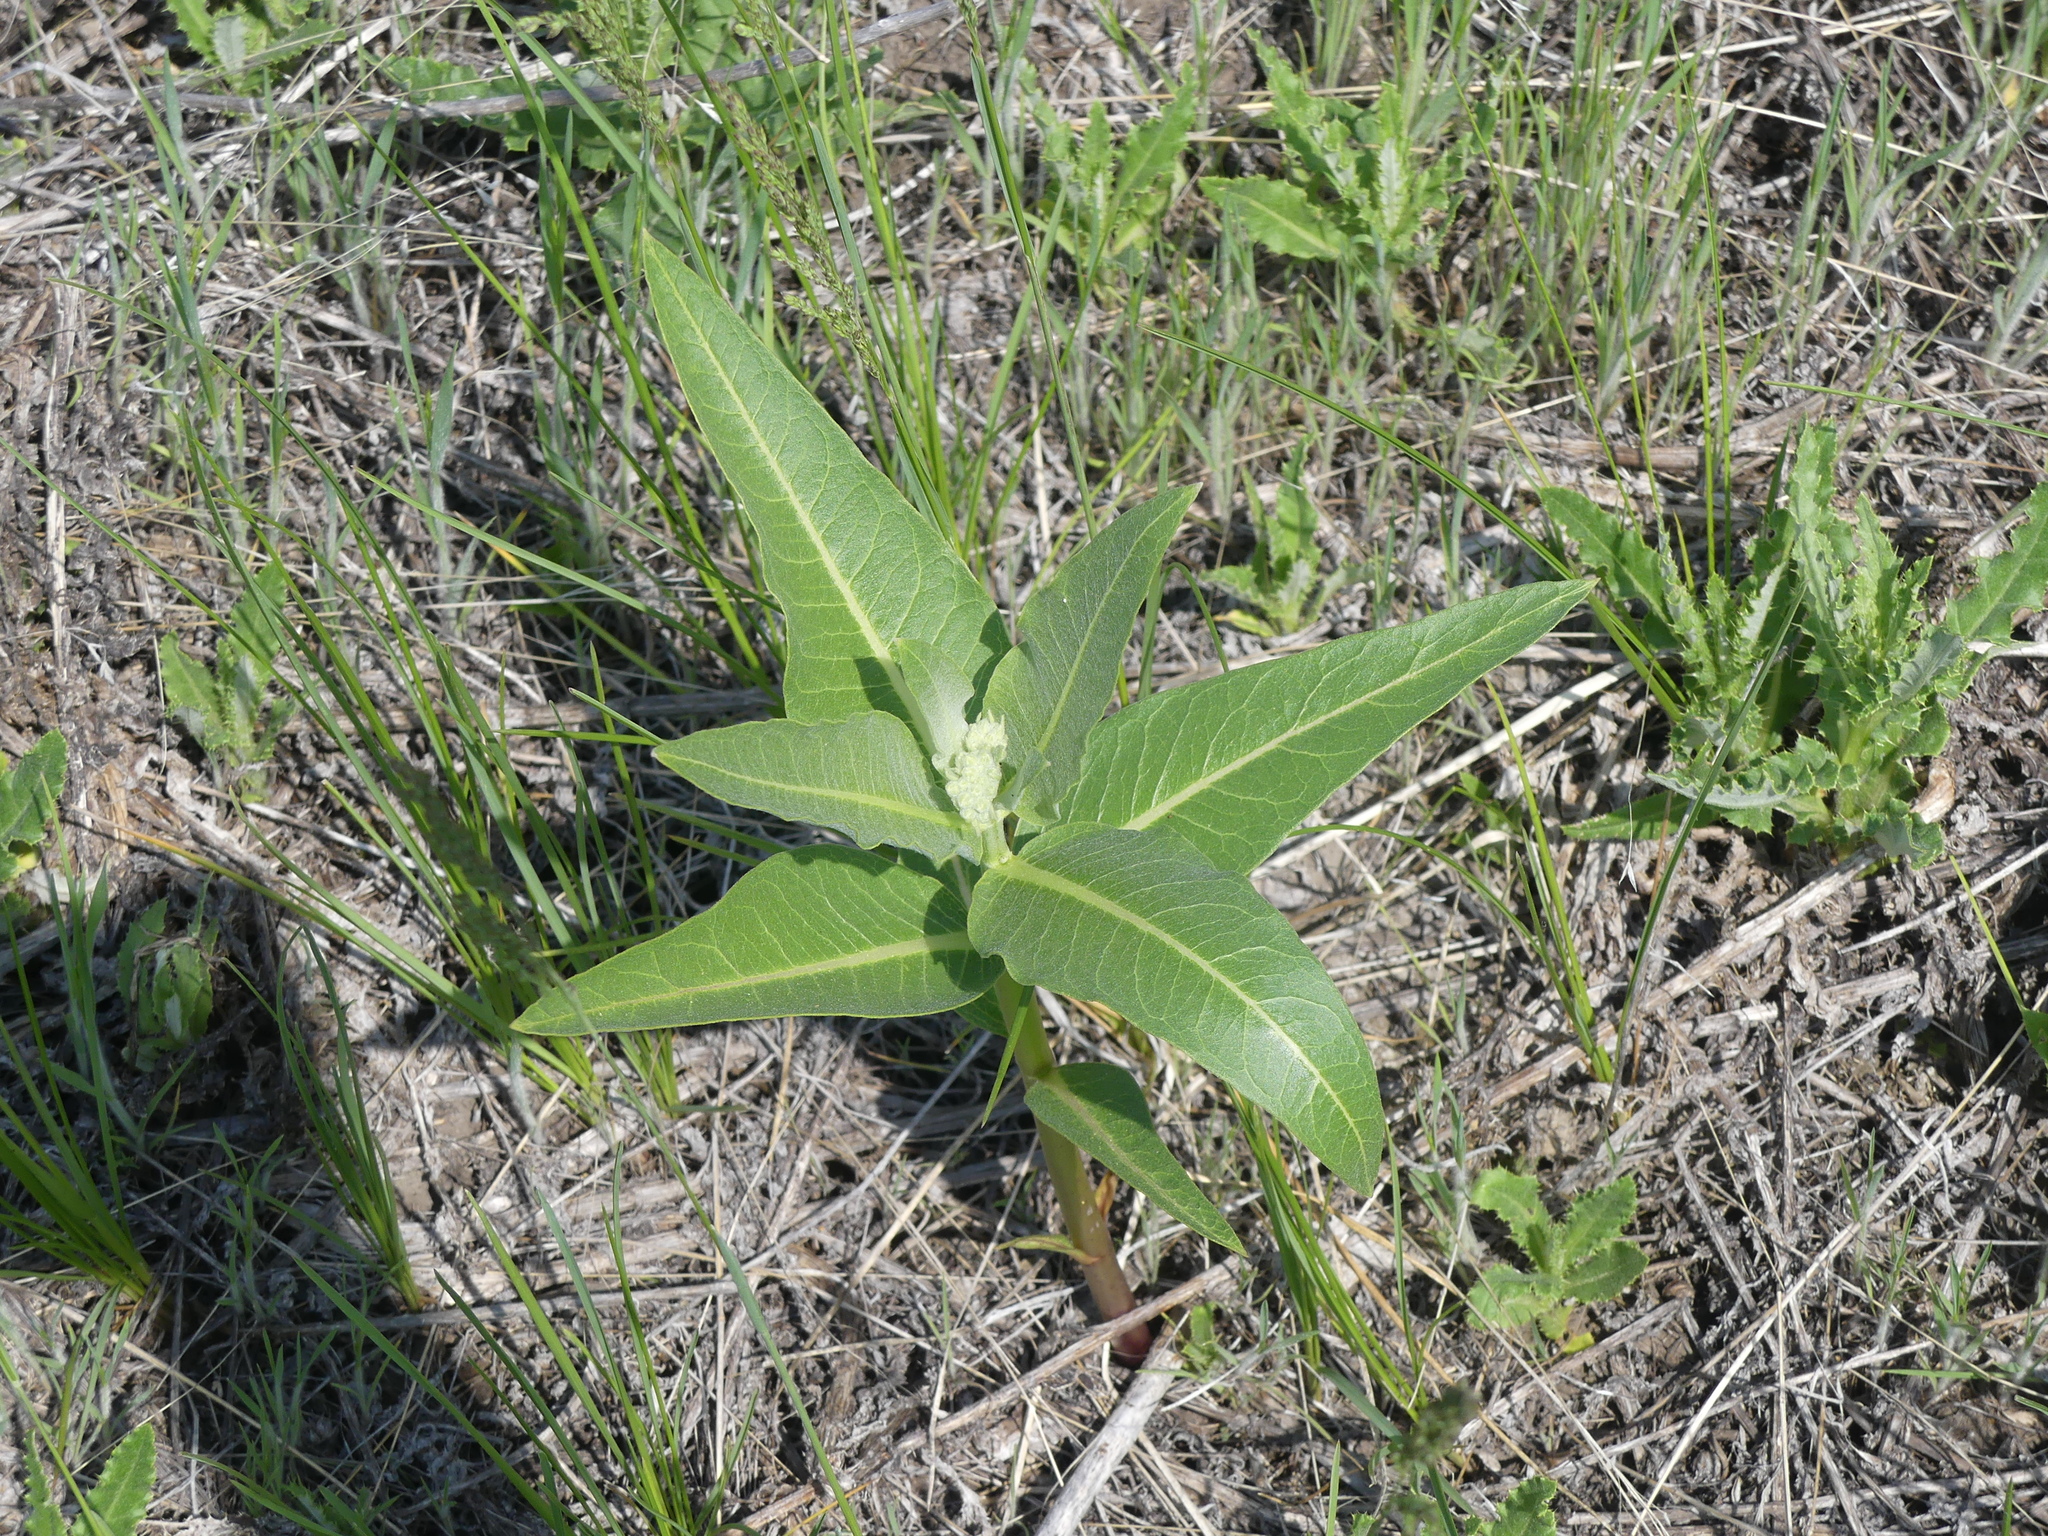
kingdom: Plantae
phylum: Tracheophyta
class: Magnoliopsida
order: Gentianales
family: Apocynaceae
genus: Asclepias
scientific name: Asclepias speciosa
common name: Showy milkweed
